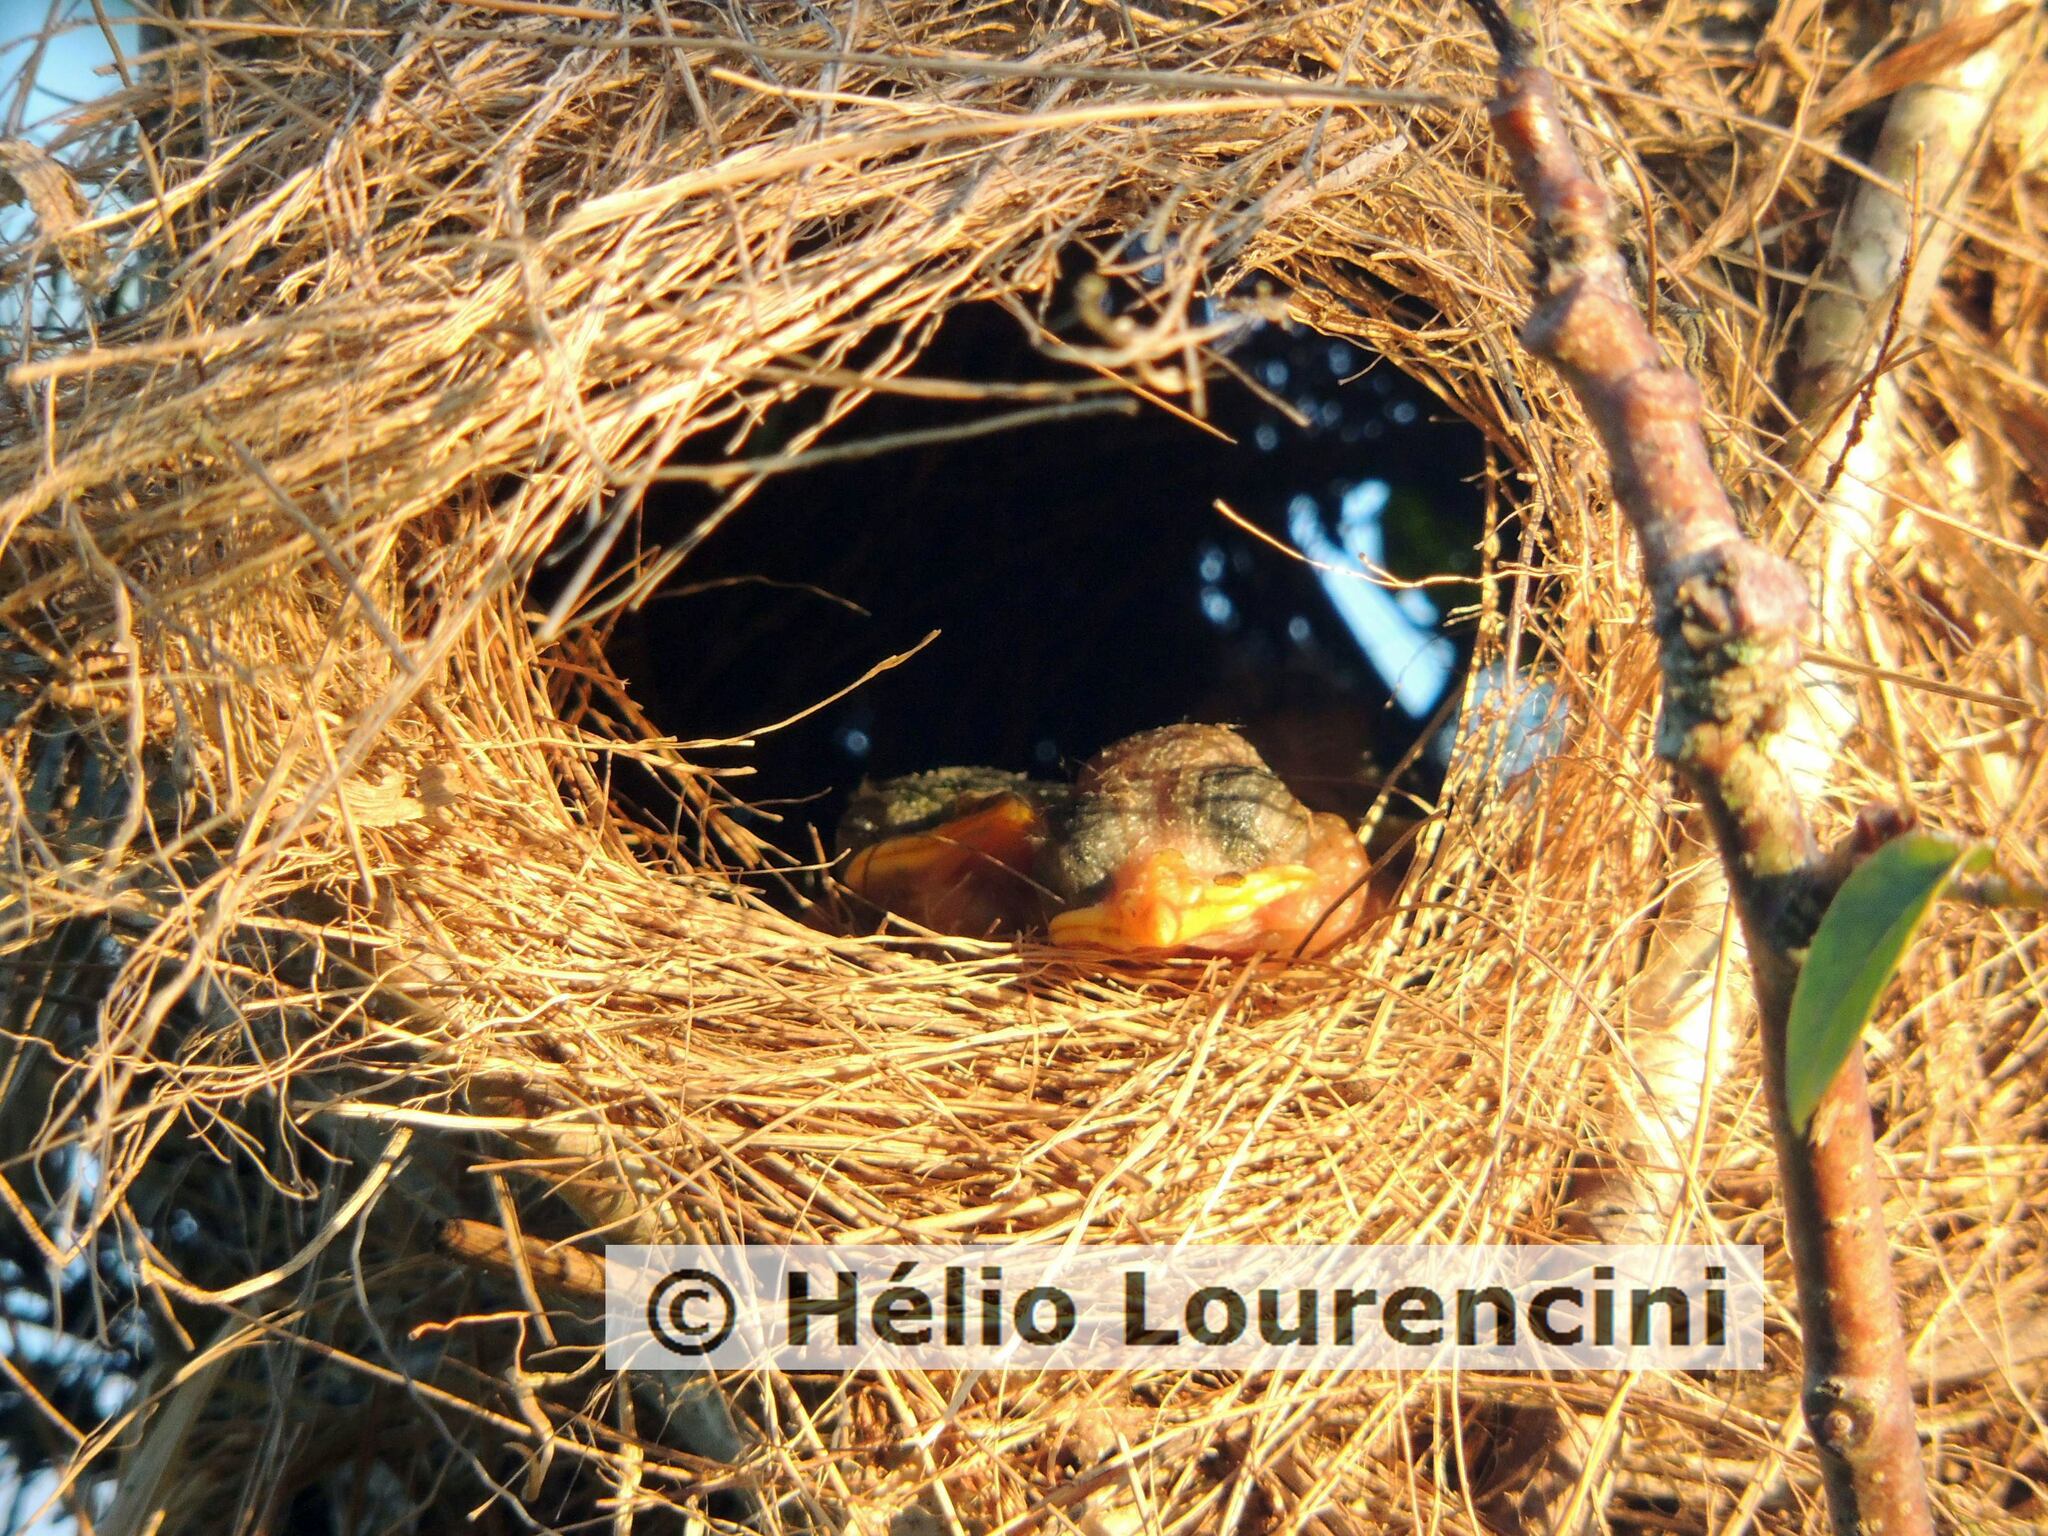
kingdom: Animalia
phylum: Chordata
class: Aves
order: Passeriformes
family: Tyrannidae
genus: Myiozetetes
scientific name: Myiozetetes similis
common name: Social flycatcher
